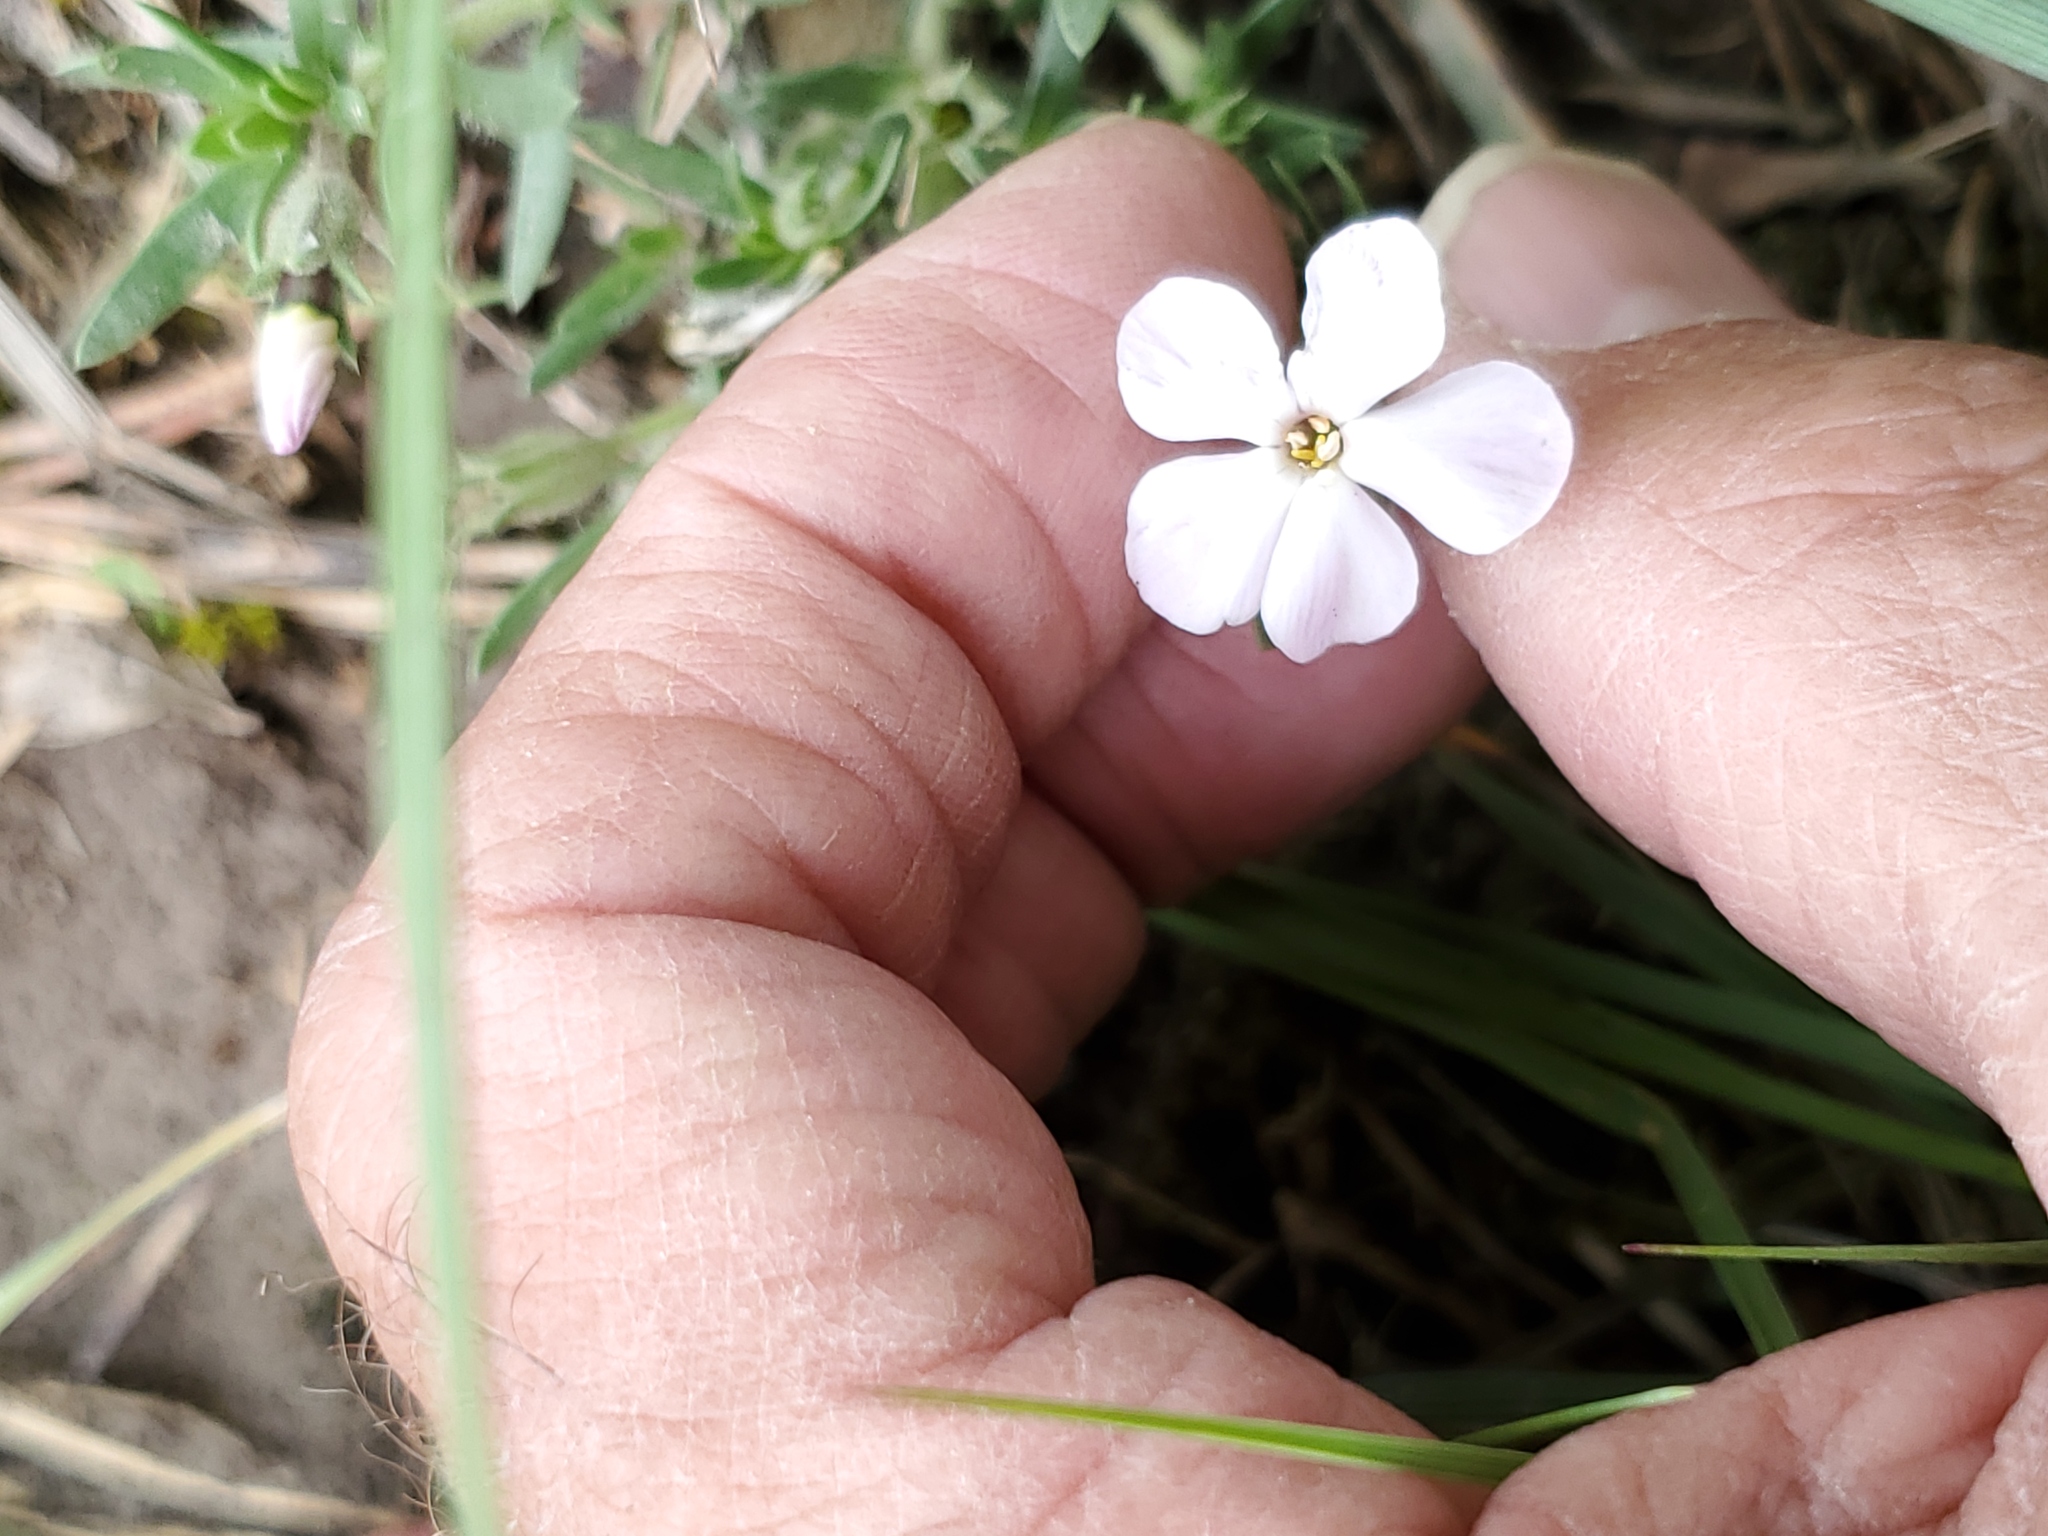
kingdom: Plantae
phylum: Tracheophyta
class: Magnoliopsida
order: Ericales
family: Polemoniaceae
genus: Phlox
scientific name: Phlox alyssifolia
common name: Blue phlox
